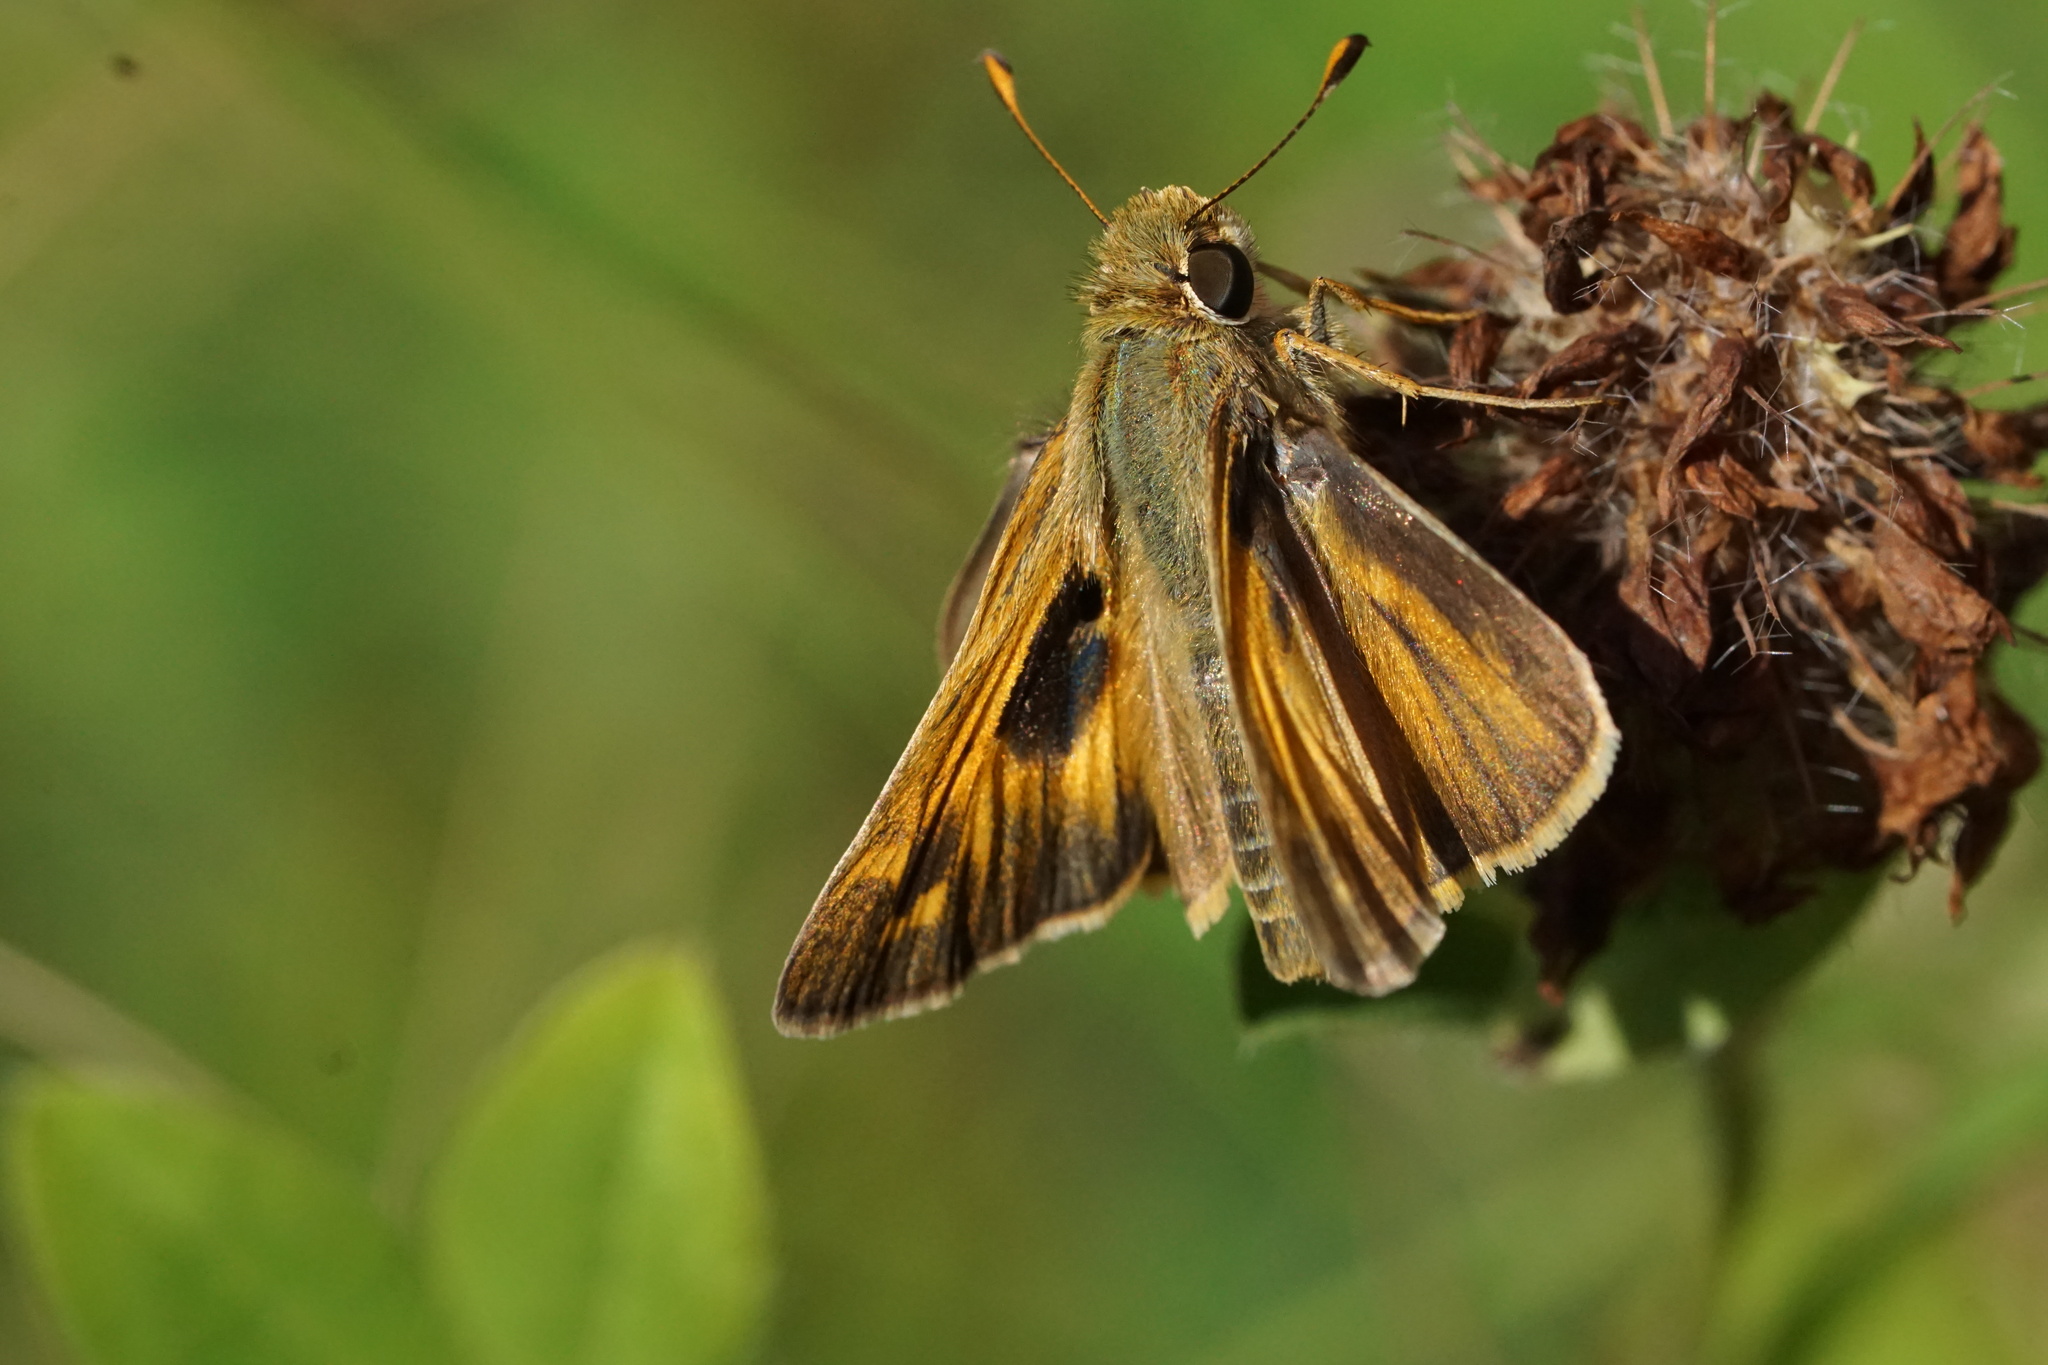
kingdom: Animalia
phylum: Arthropoda
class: Insecta
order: Lepidoptera
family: Hesperiidae
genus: Atalopedes
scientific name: Atalopedes
